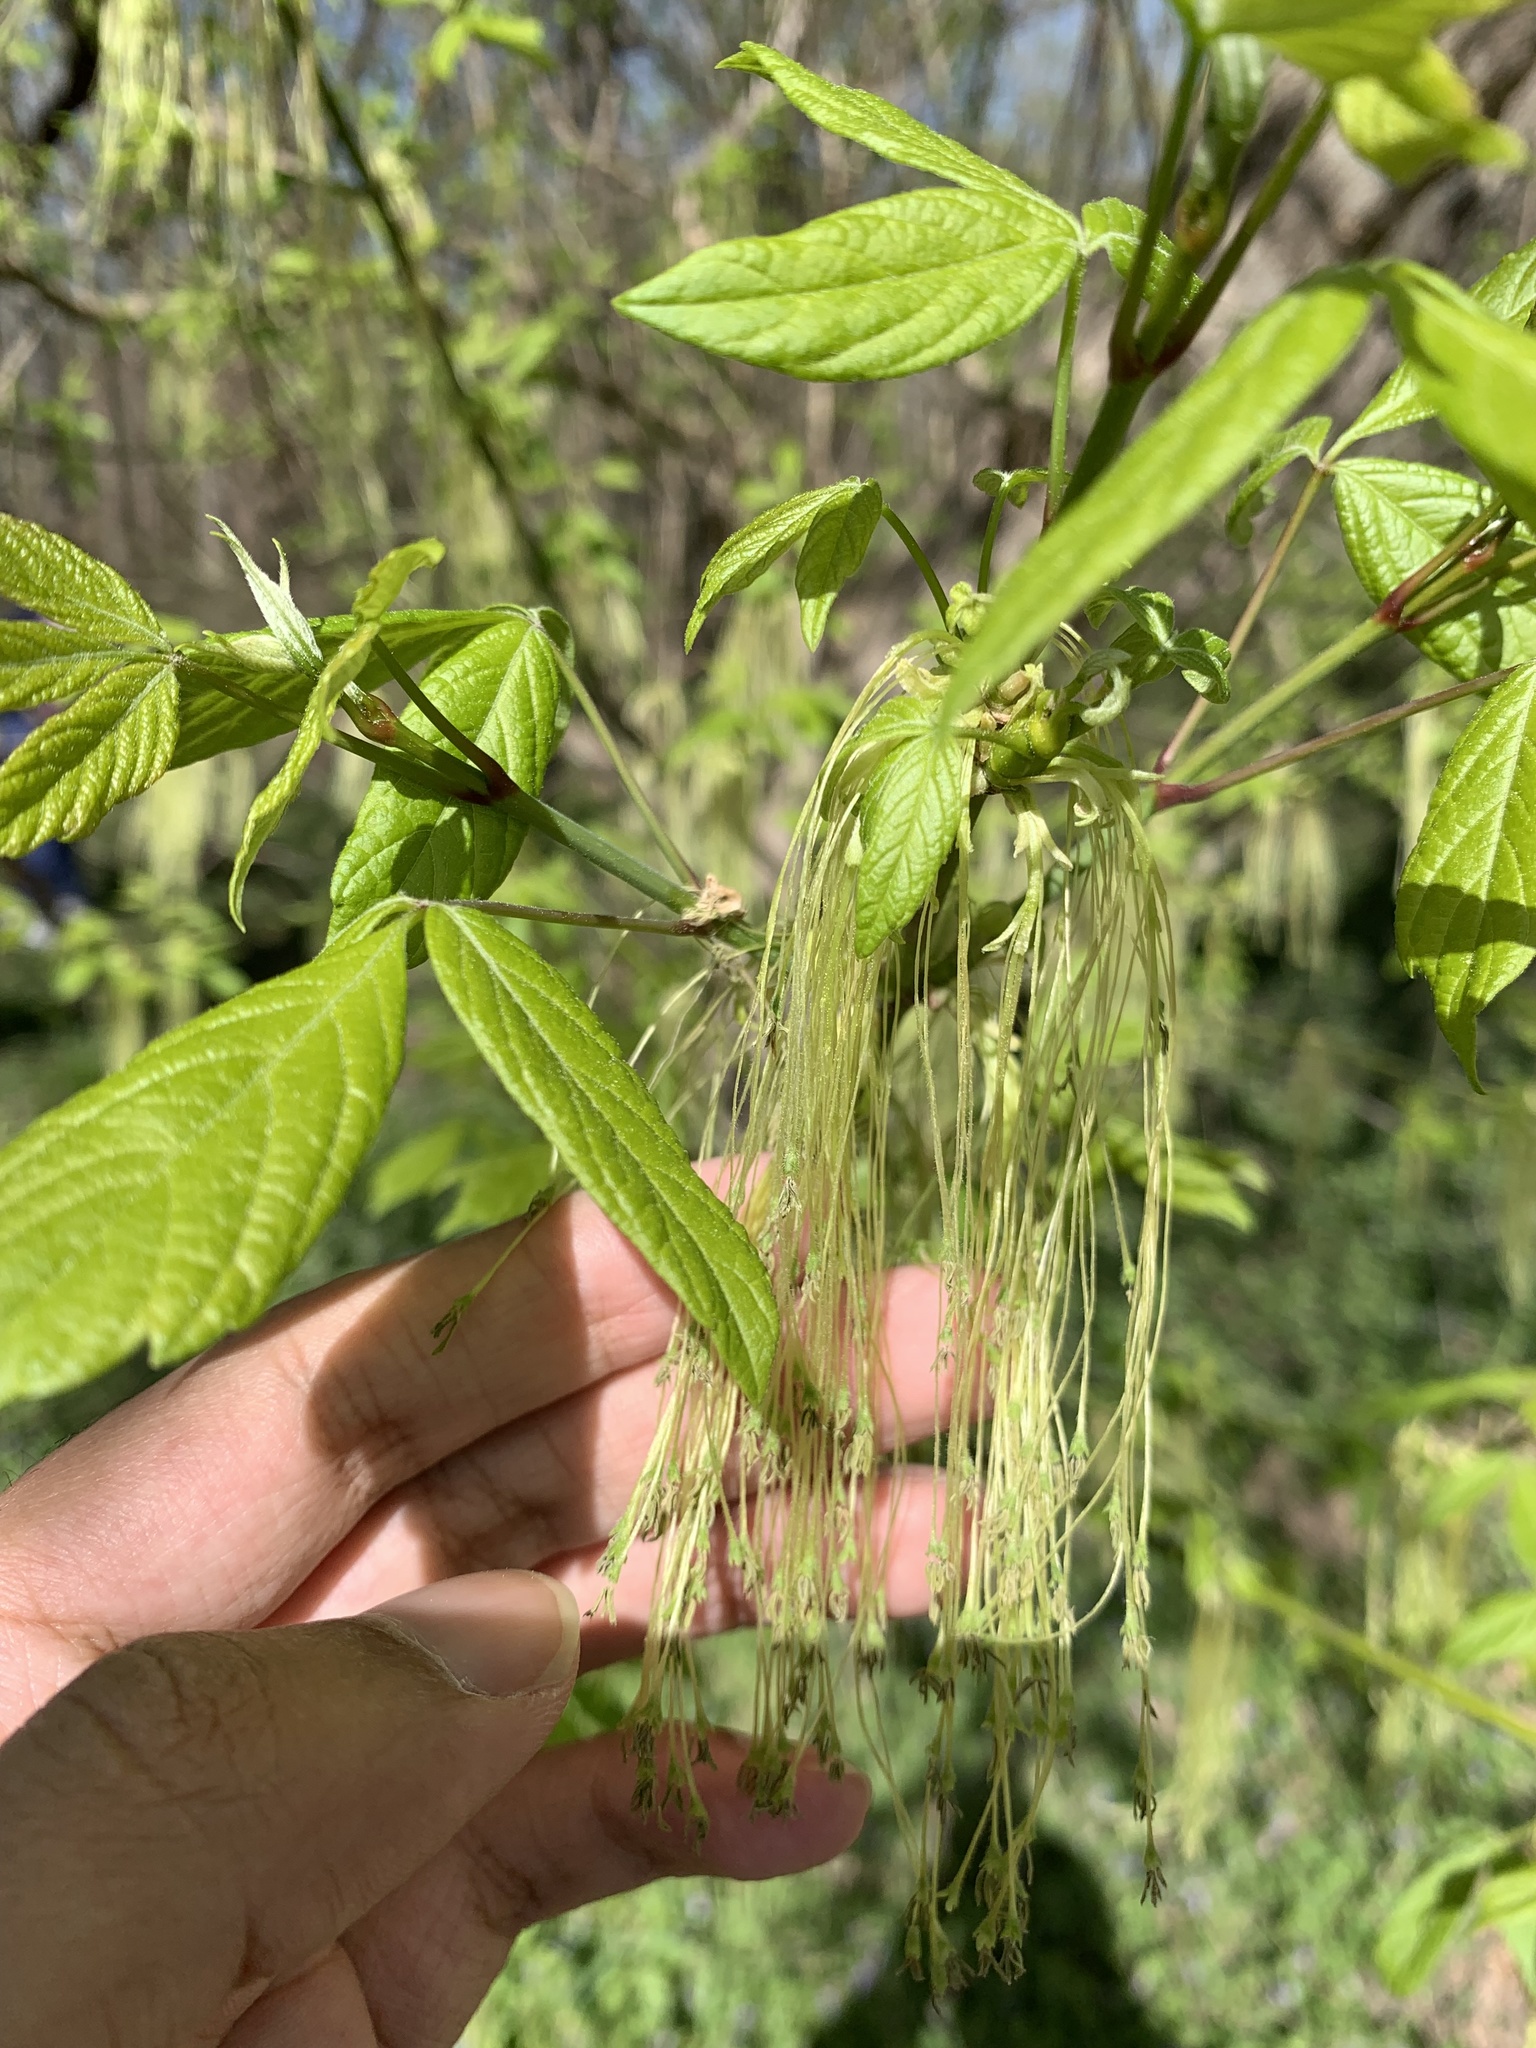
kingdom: Plantae
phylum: Tracheophyta
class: Magnoliopsida
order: Sapindales
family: Sapindaceae
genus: Acer
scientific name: Acer negundo
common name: Ashleaf maple
